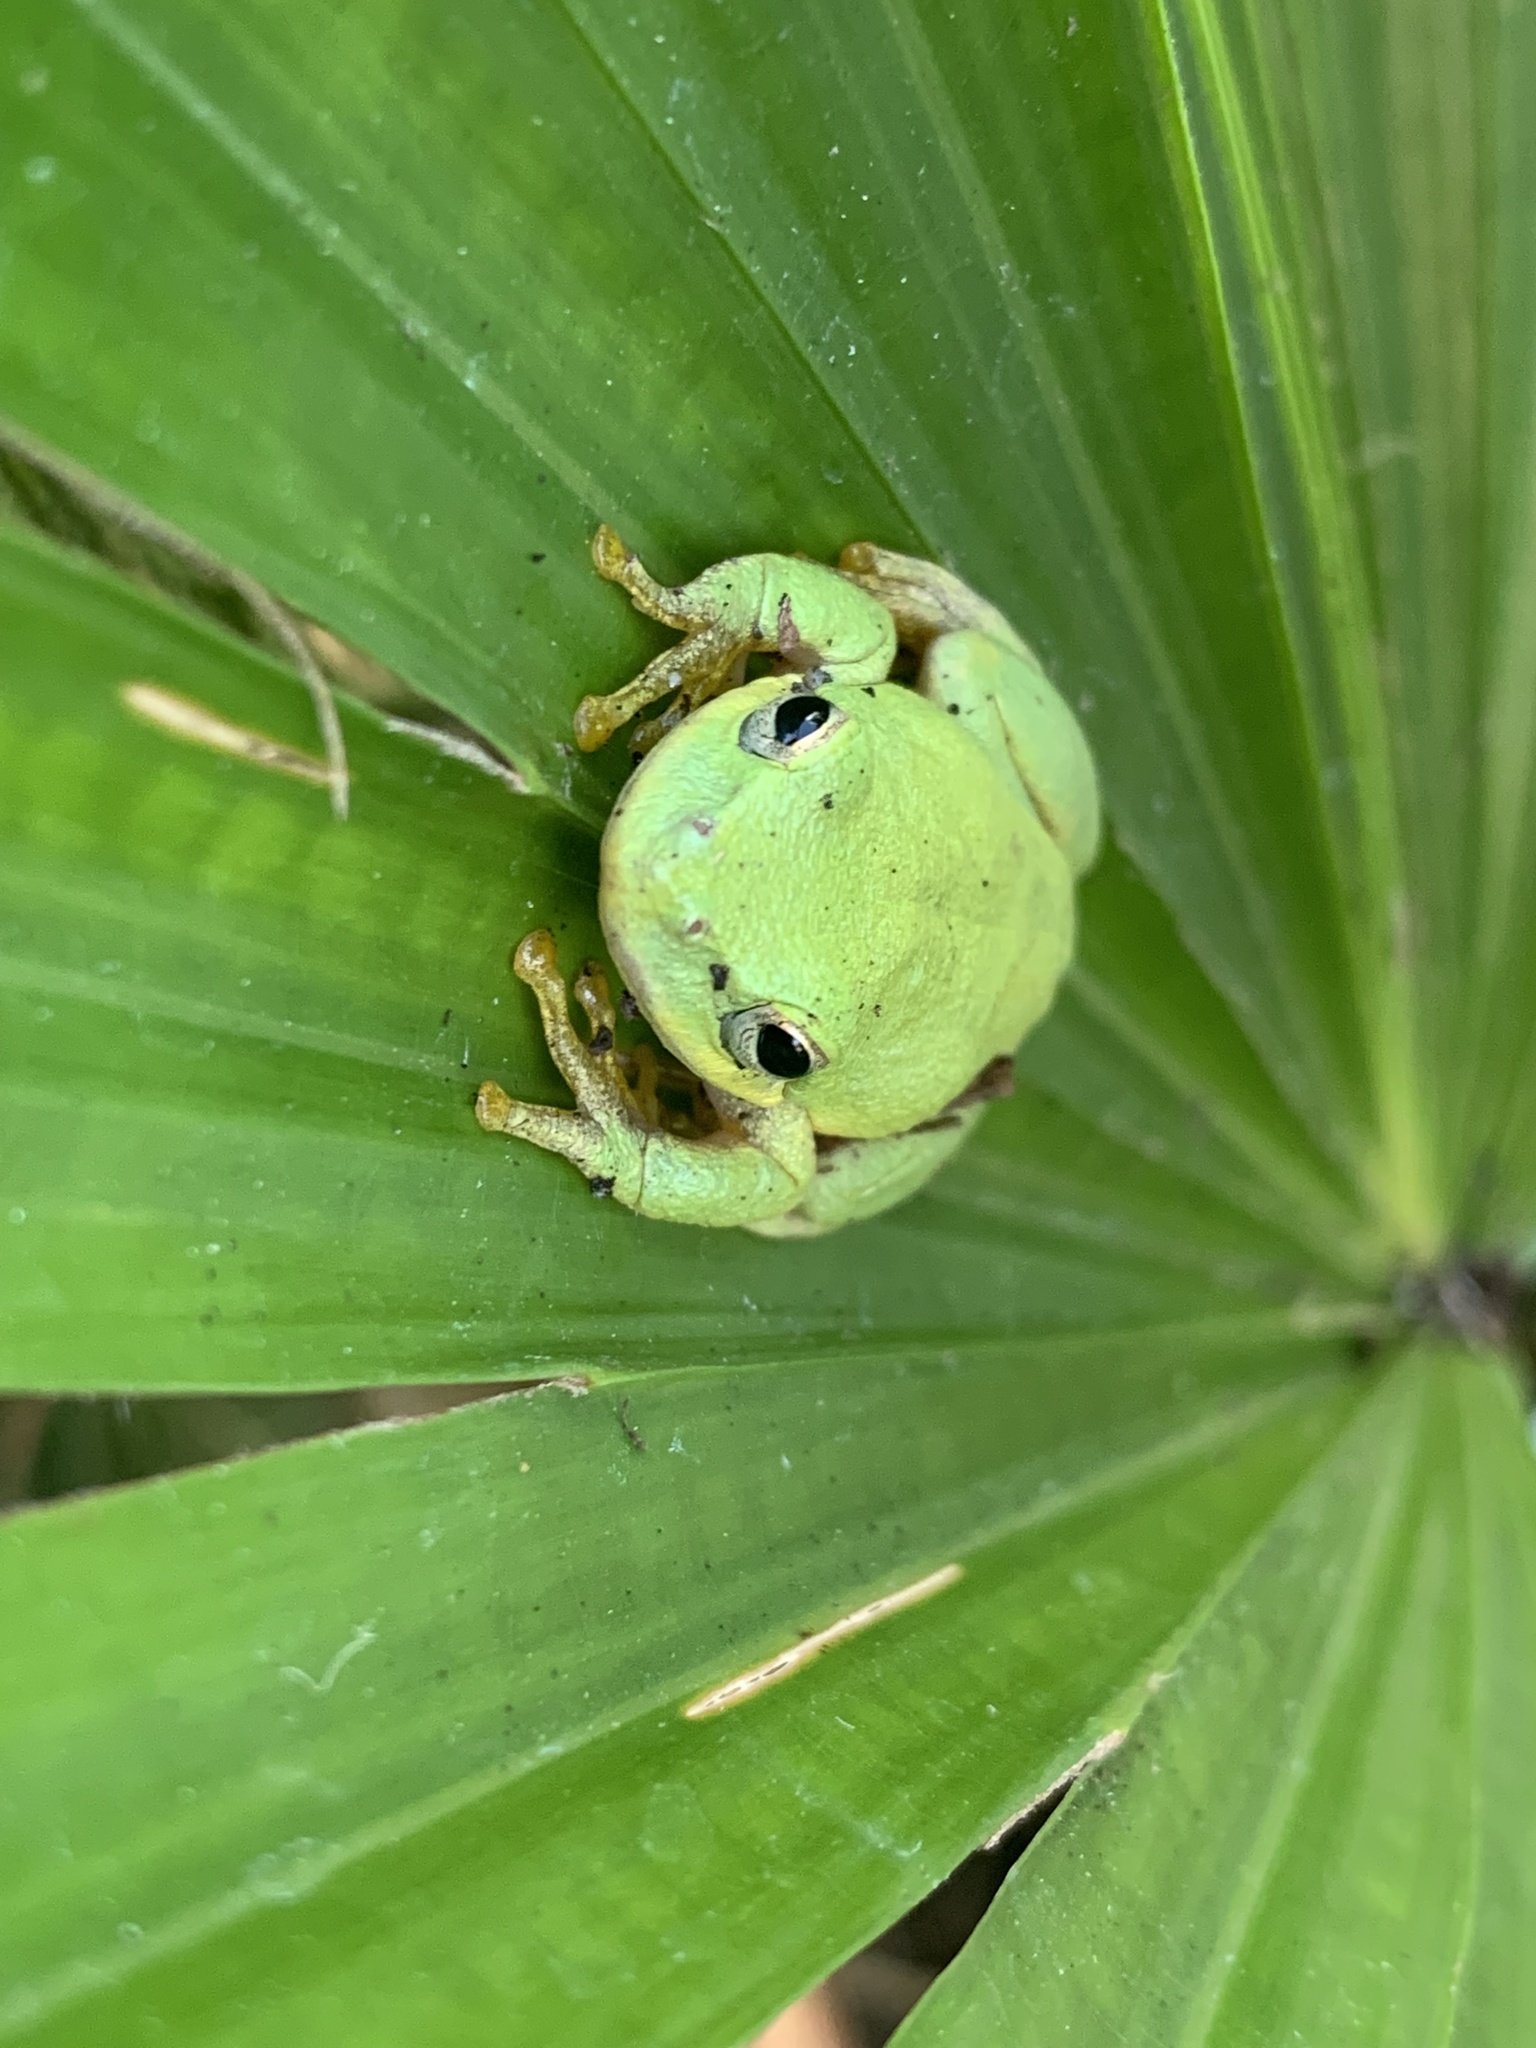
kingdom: Animalia
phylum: Chordata
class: Amphibia
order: Anura
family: Hylidae
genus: Dryophytes
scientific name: Dryophytes squirellus
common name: Squirrel treefrog
